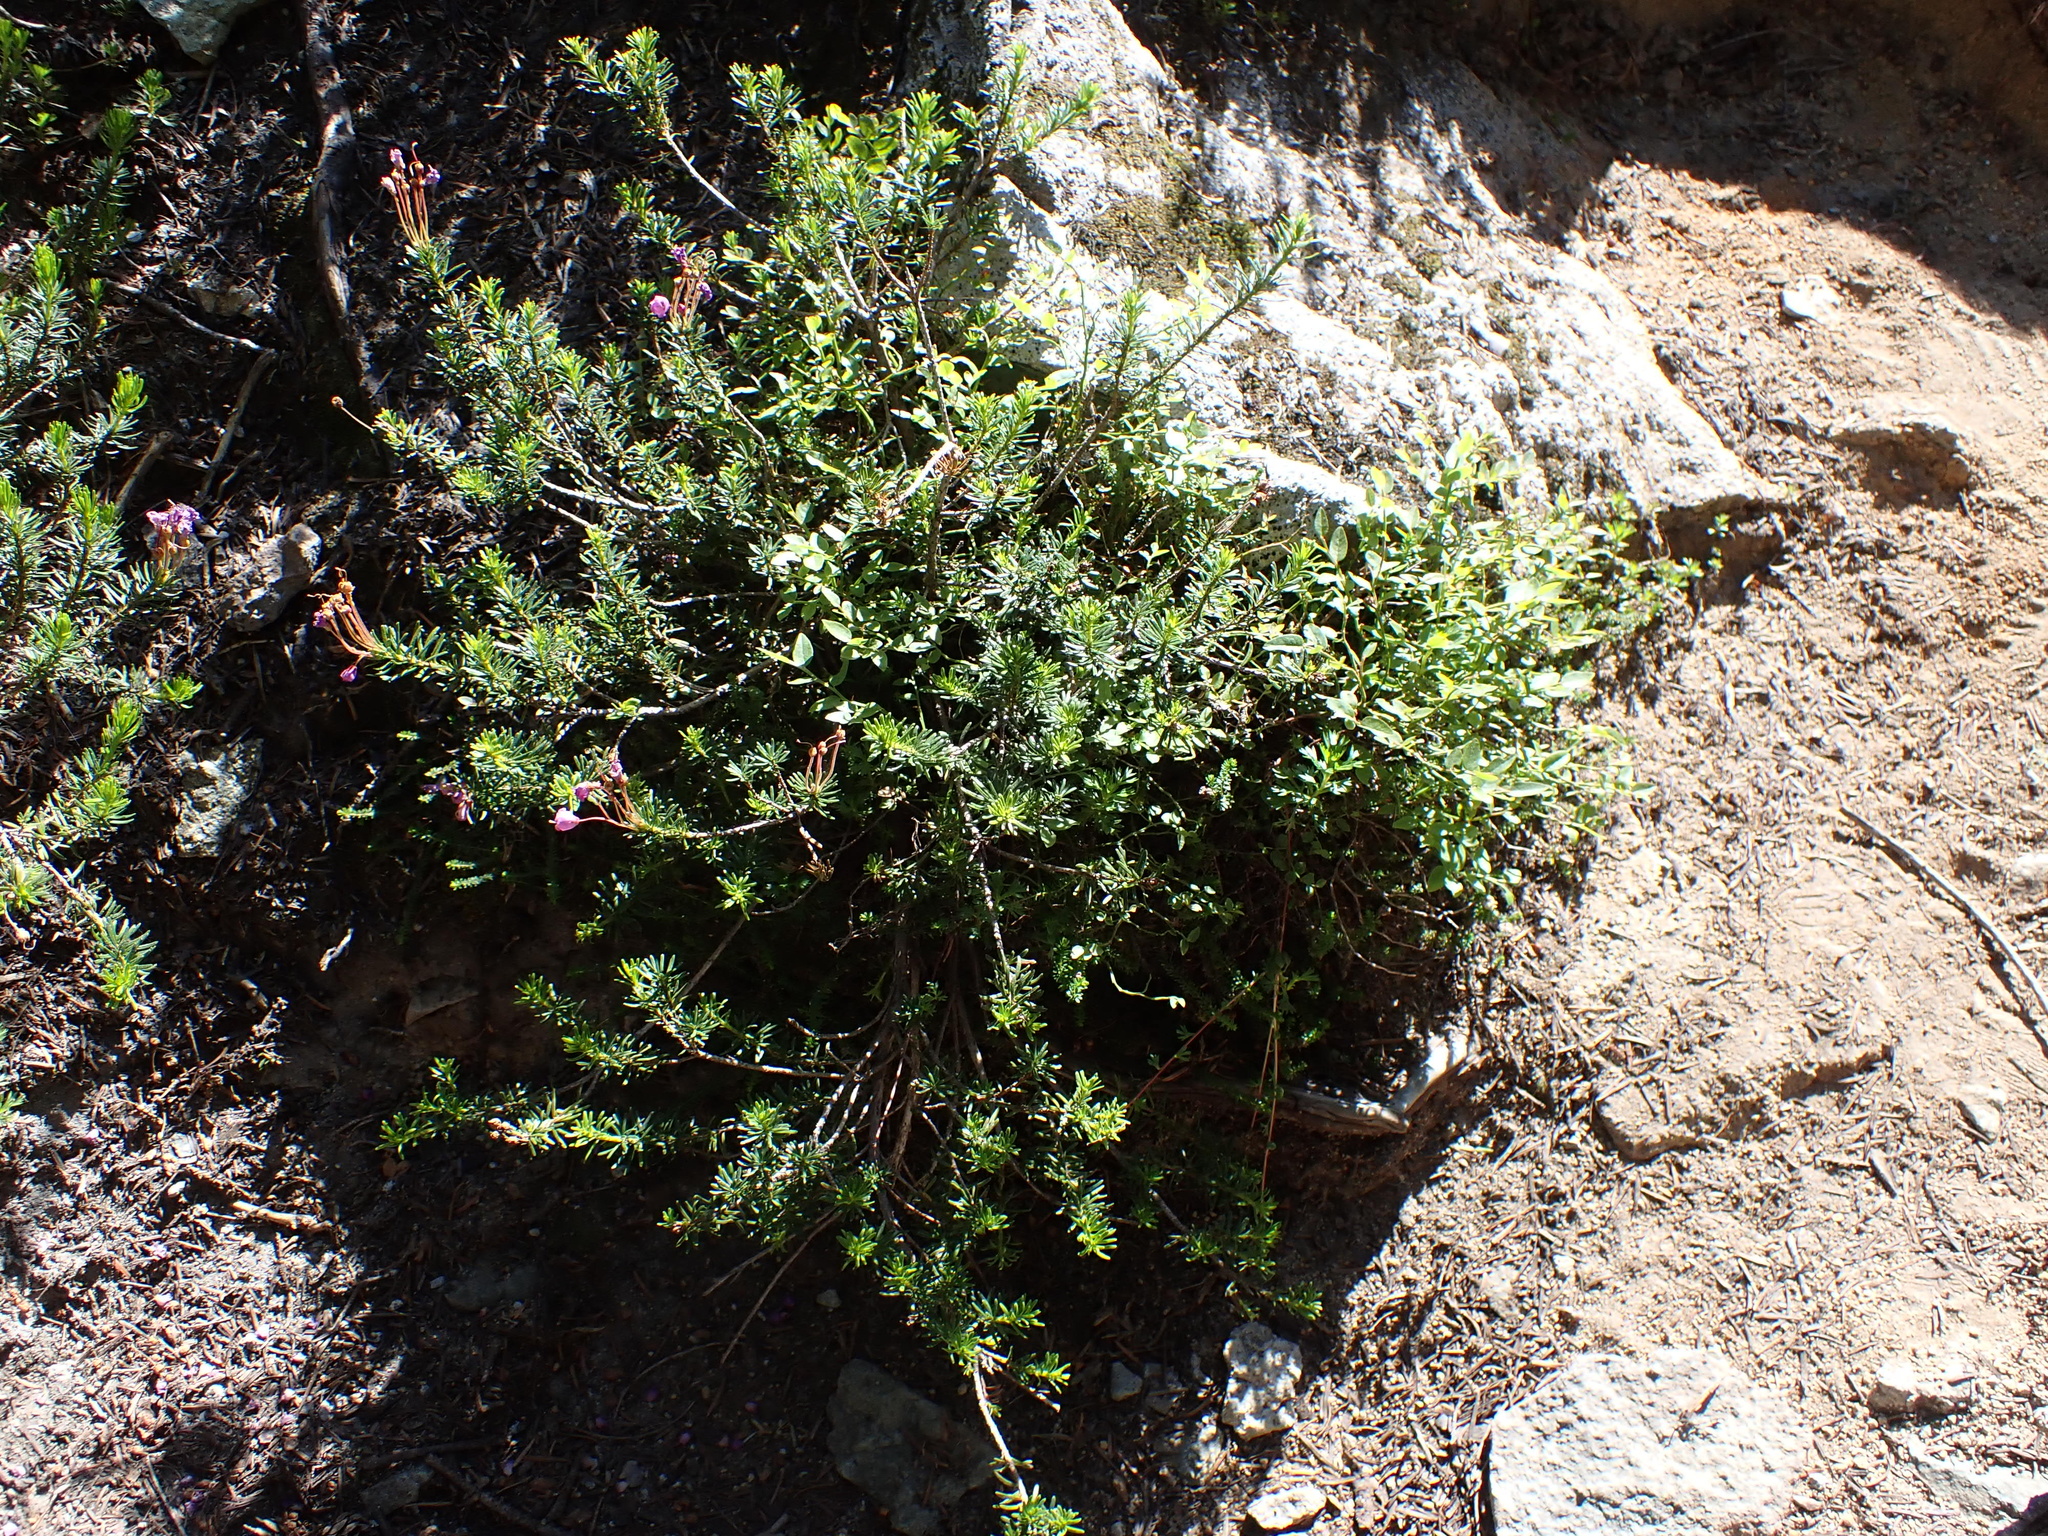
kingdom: Plantae
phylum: Tracheophyta
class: Magnoliopsida
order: Ericales
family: Ericaceae
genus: Phyllodoce
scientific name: Phyllodoce empetriformis
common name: Pink mountain heather
